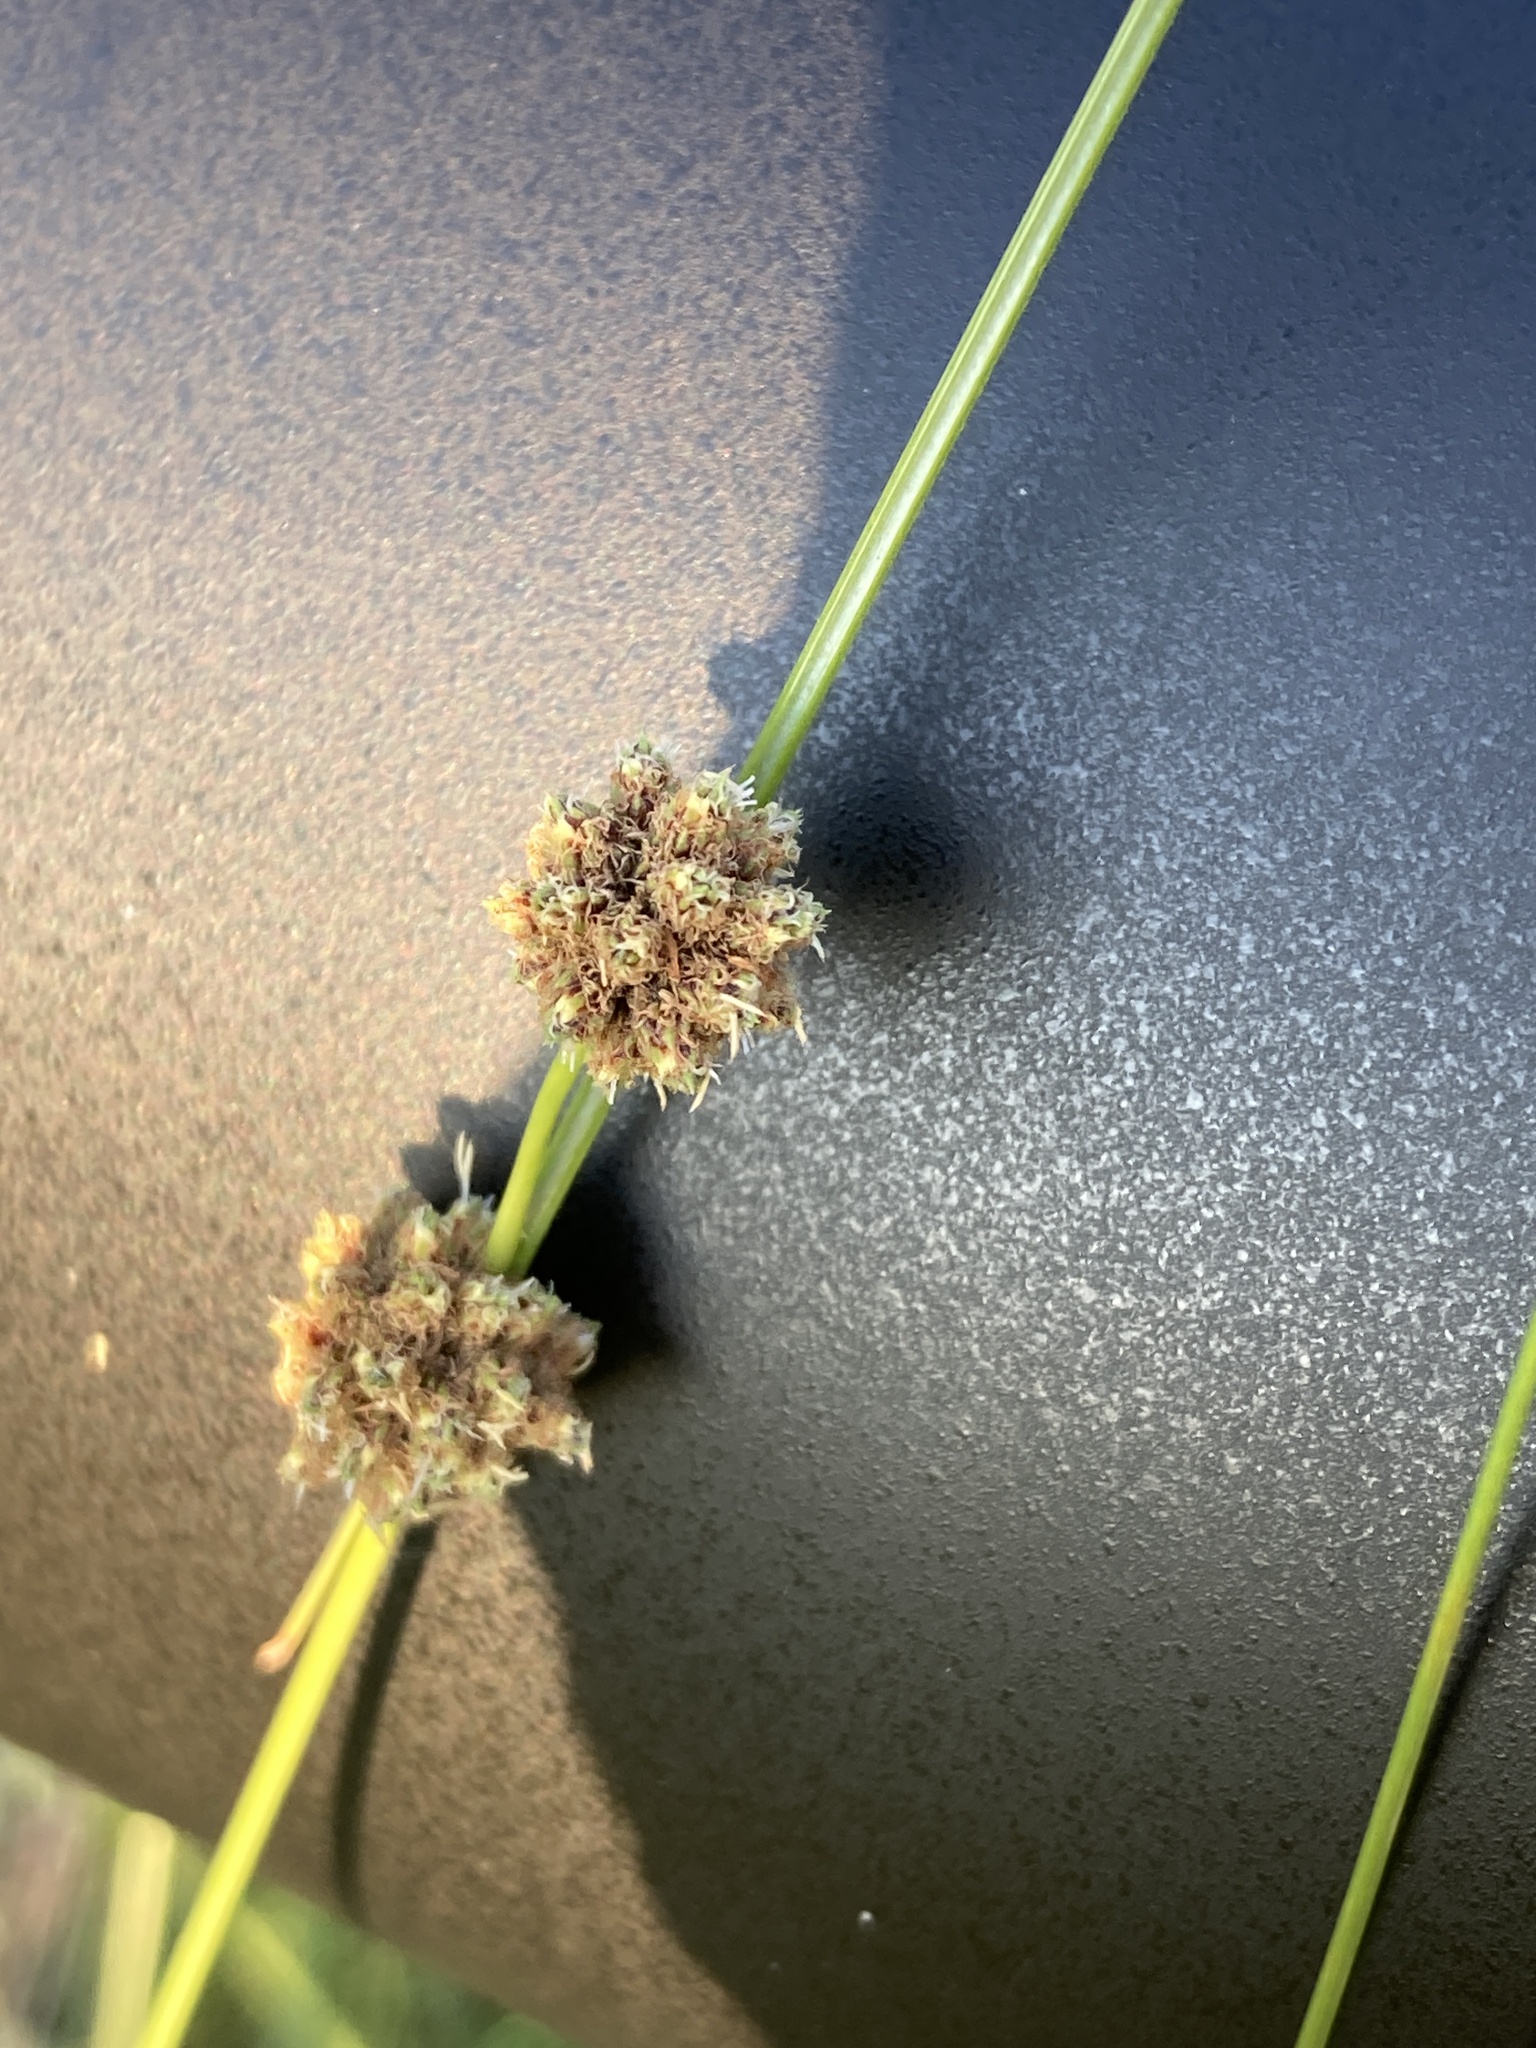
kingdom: Plantae
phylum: Tracheophyta
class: Liliopsida
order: Poales
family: Cyperaceae
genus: Scirpoides
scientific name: Scirpoides holoschoenus
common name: Round-headed club-rush
